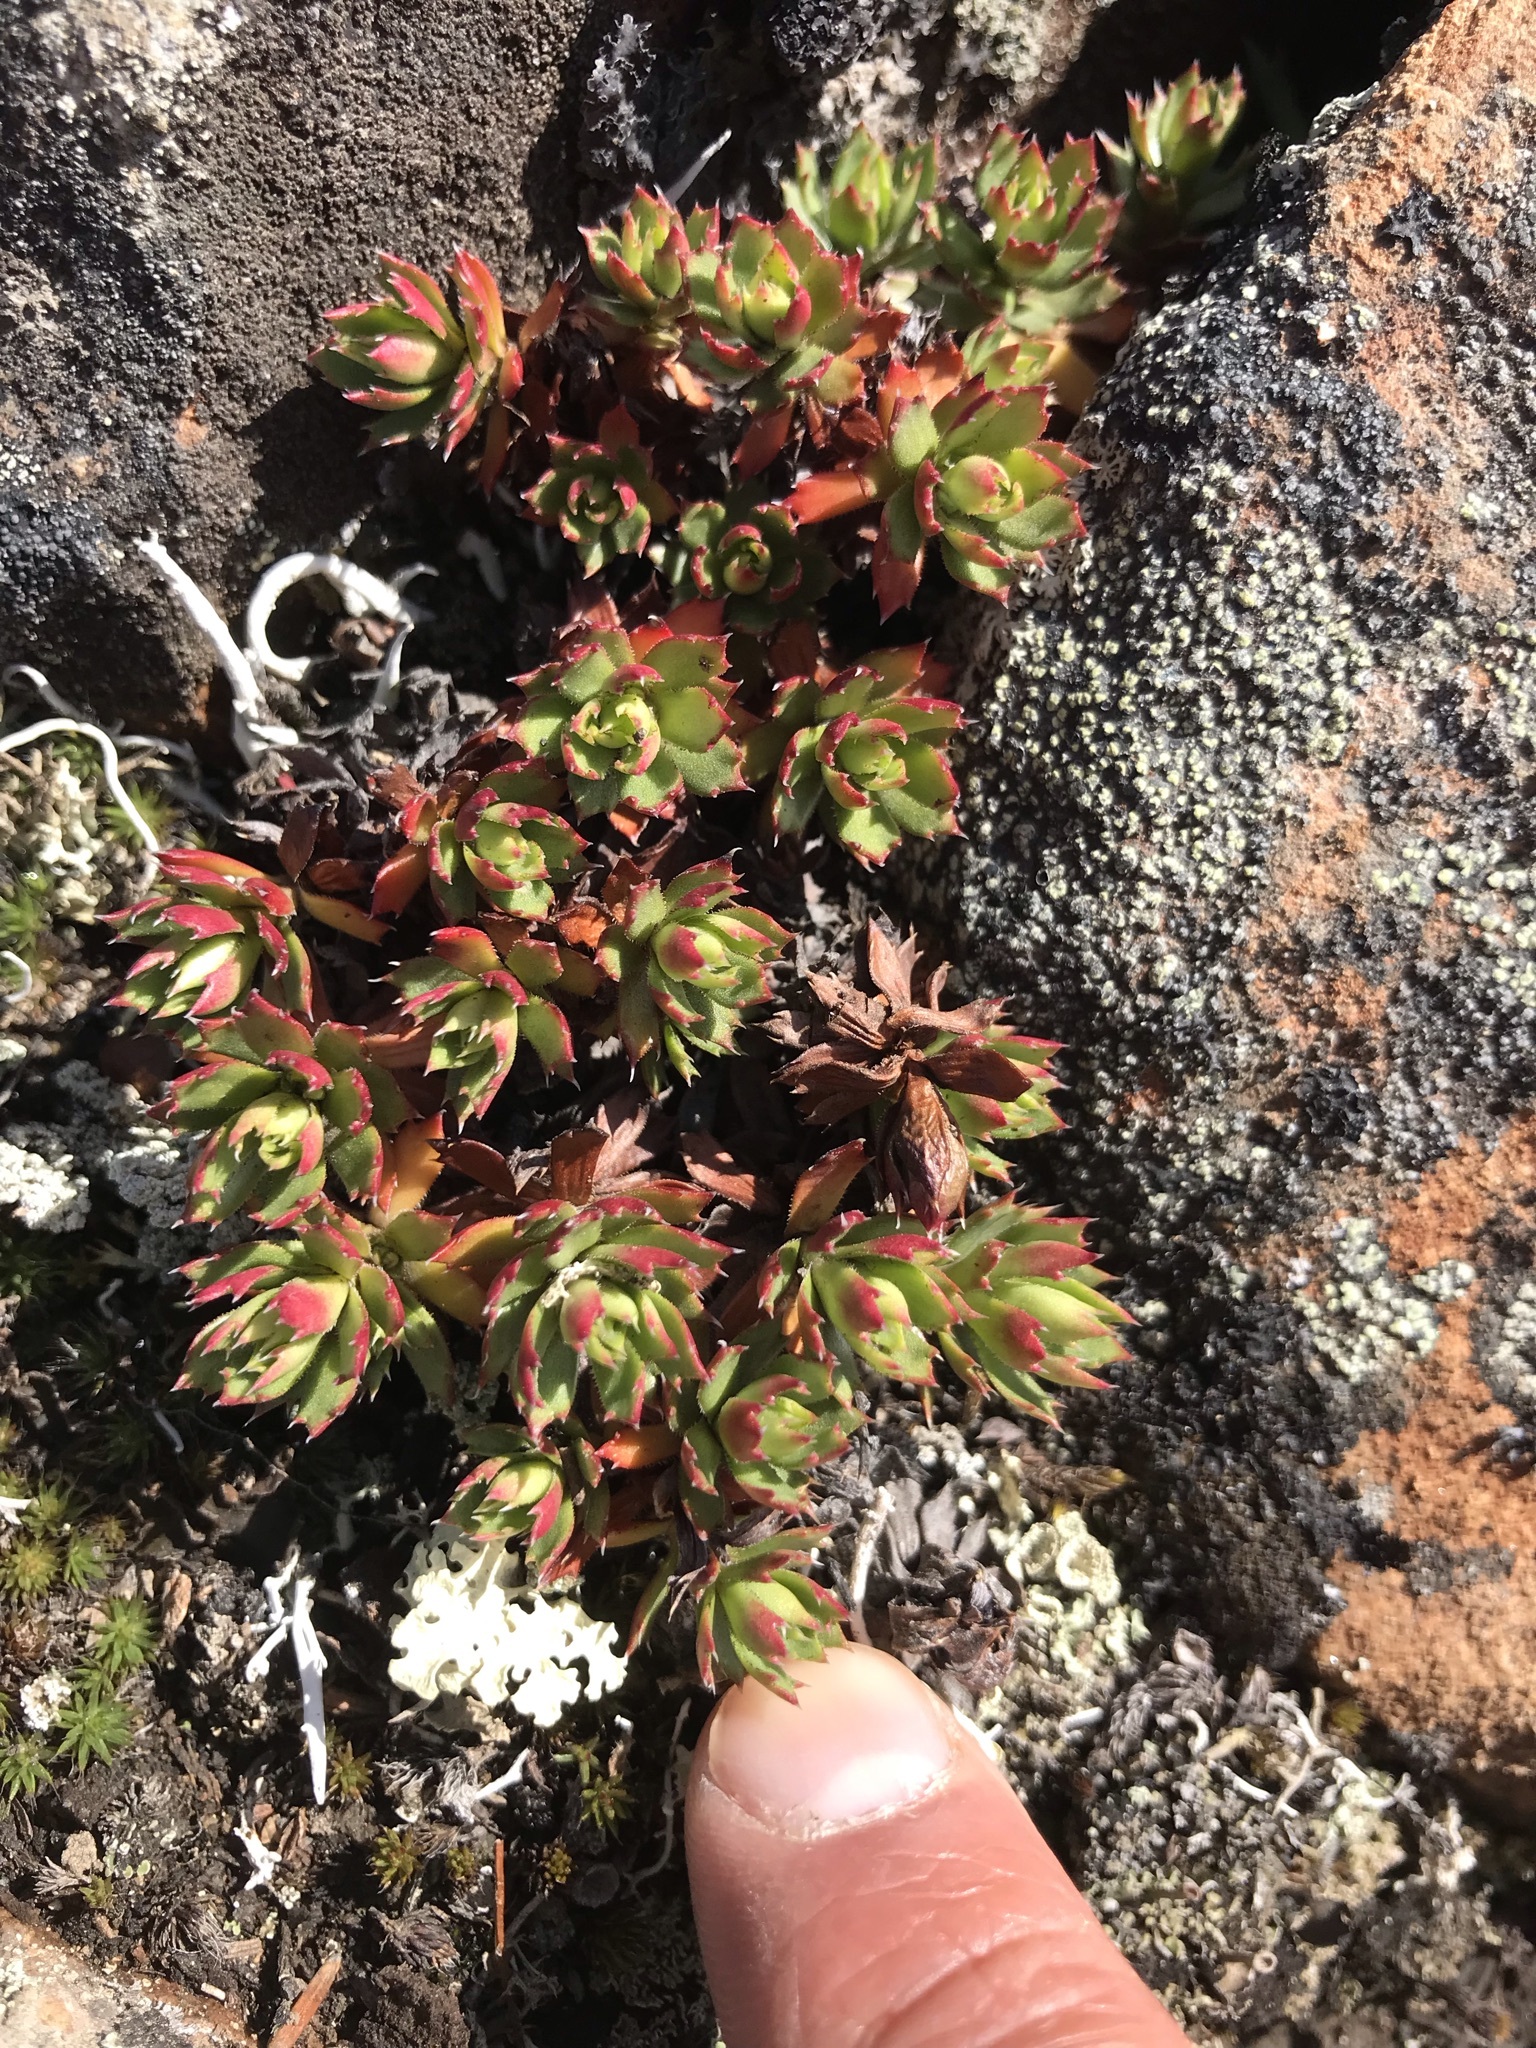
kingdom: Plantae
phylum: Tracheophyta
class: Magnoliopsida
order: Saxifragales
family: Saxifragaceae
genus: Saxifraga
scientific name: Saxifraga tricuspidata
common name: Prickly saxifrage
